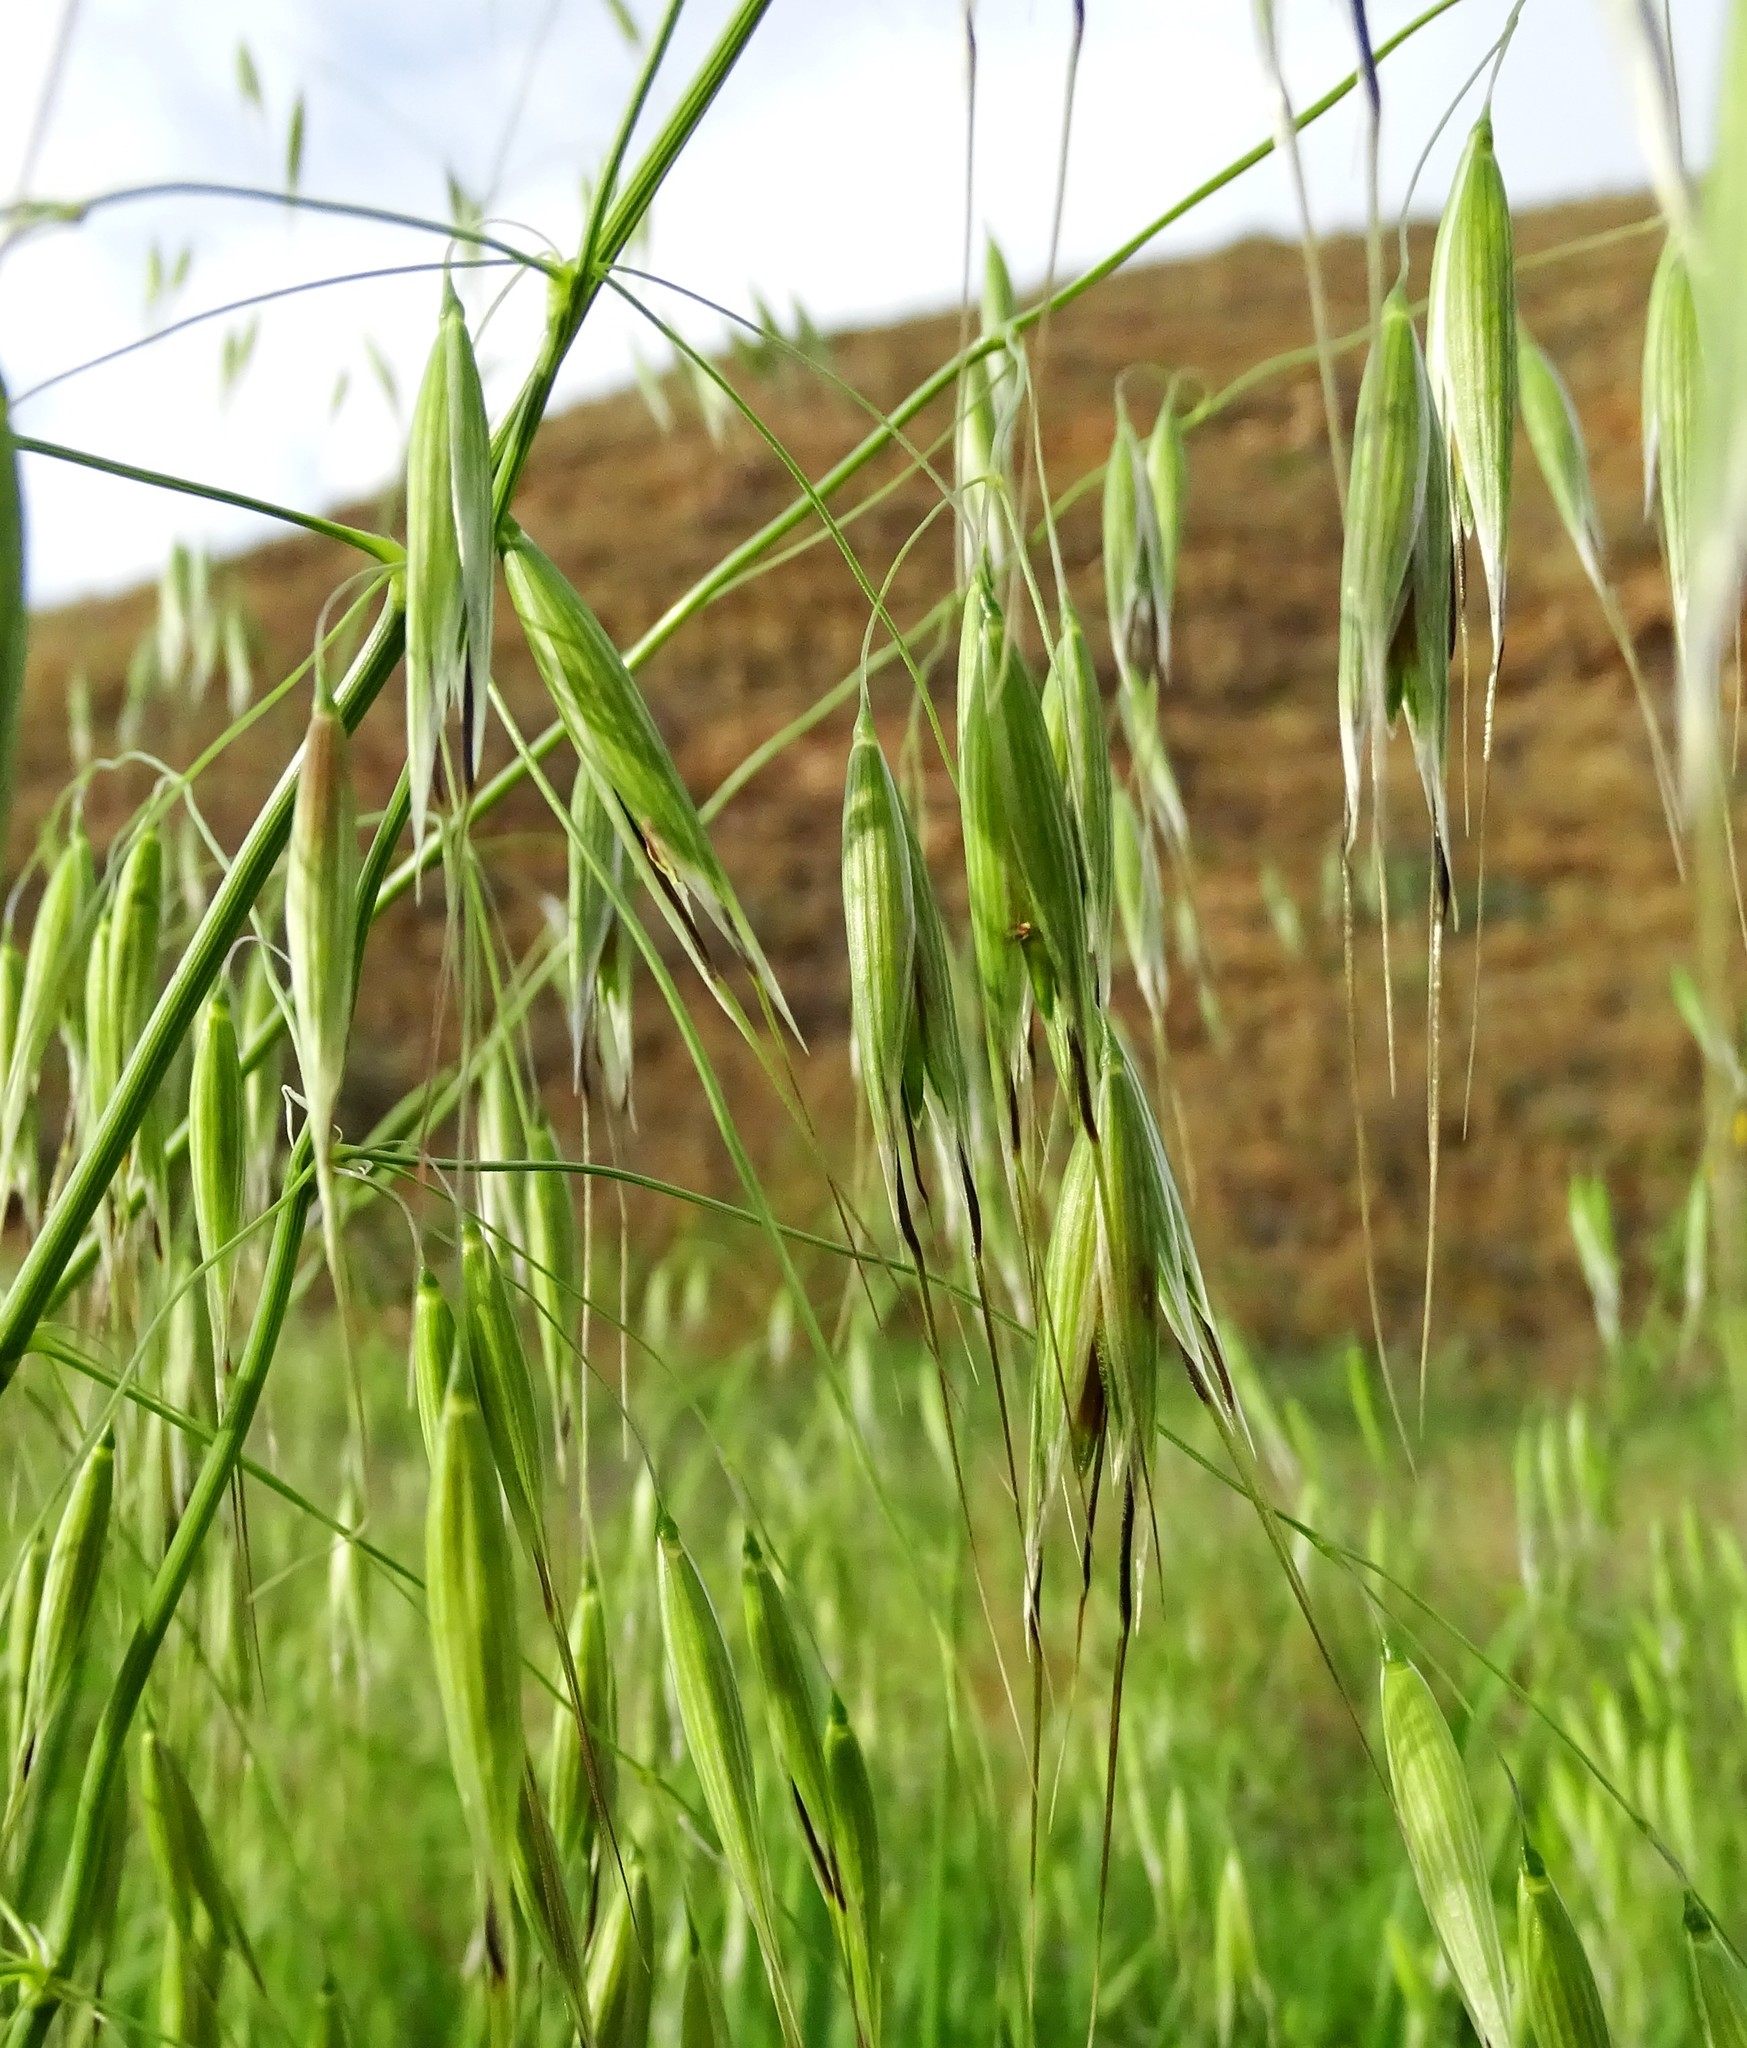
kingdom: Plantae
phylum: Tracheophyta
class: Liliopsida
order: Poales
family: Poaceae
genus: Avena
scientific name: Avena fatua
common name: Wild oat
